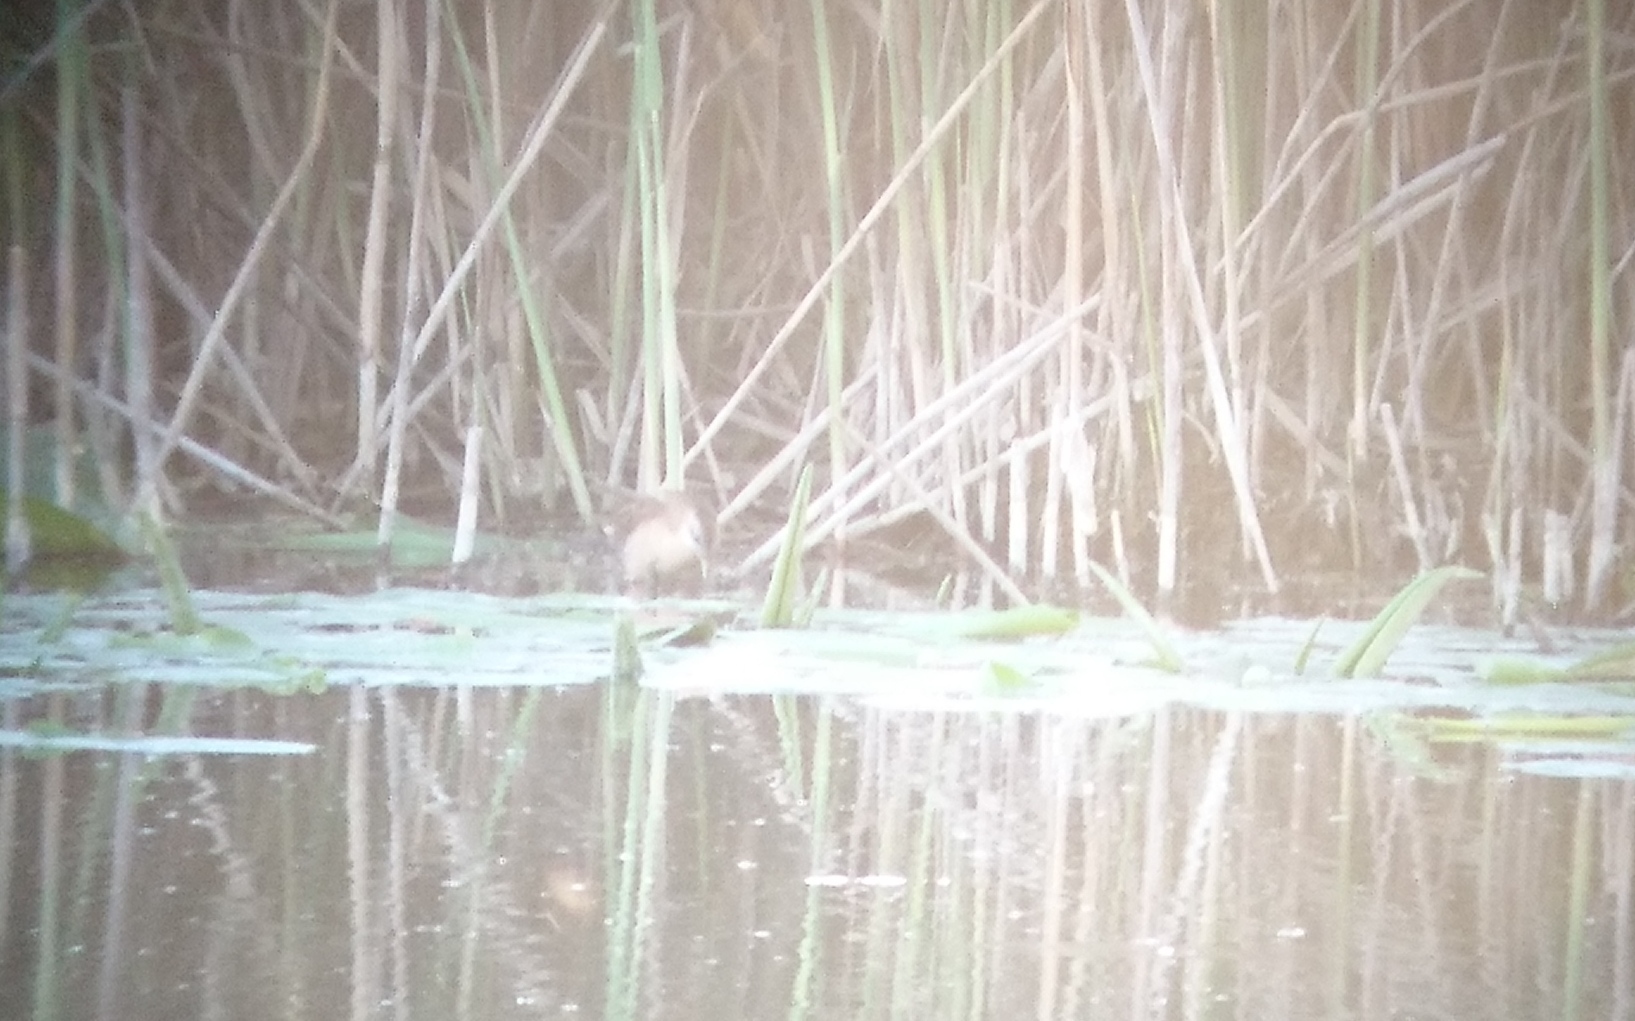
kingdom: Animalia
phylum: Chordata
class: Aves
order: Gruiformes
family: Rallidae
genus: Porzana
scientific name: Porzana parva
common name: Little crake
